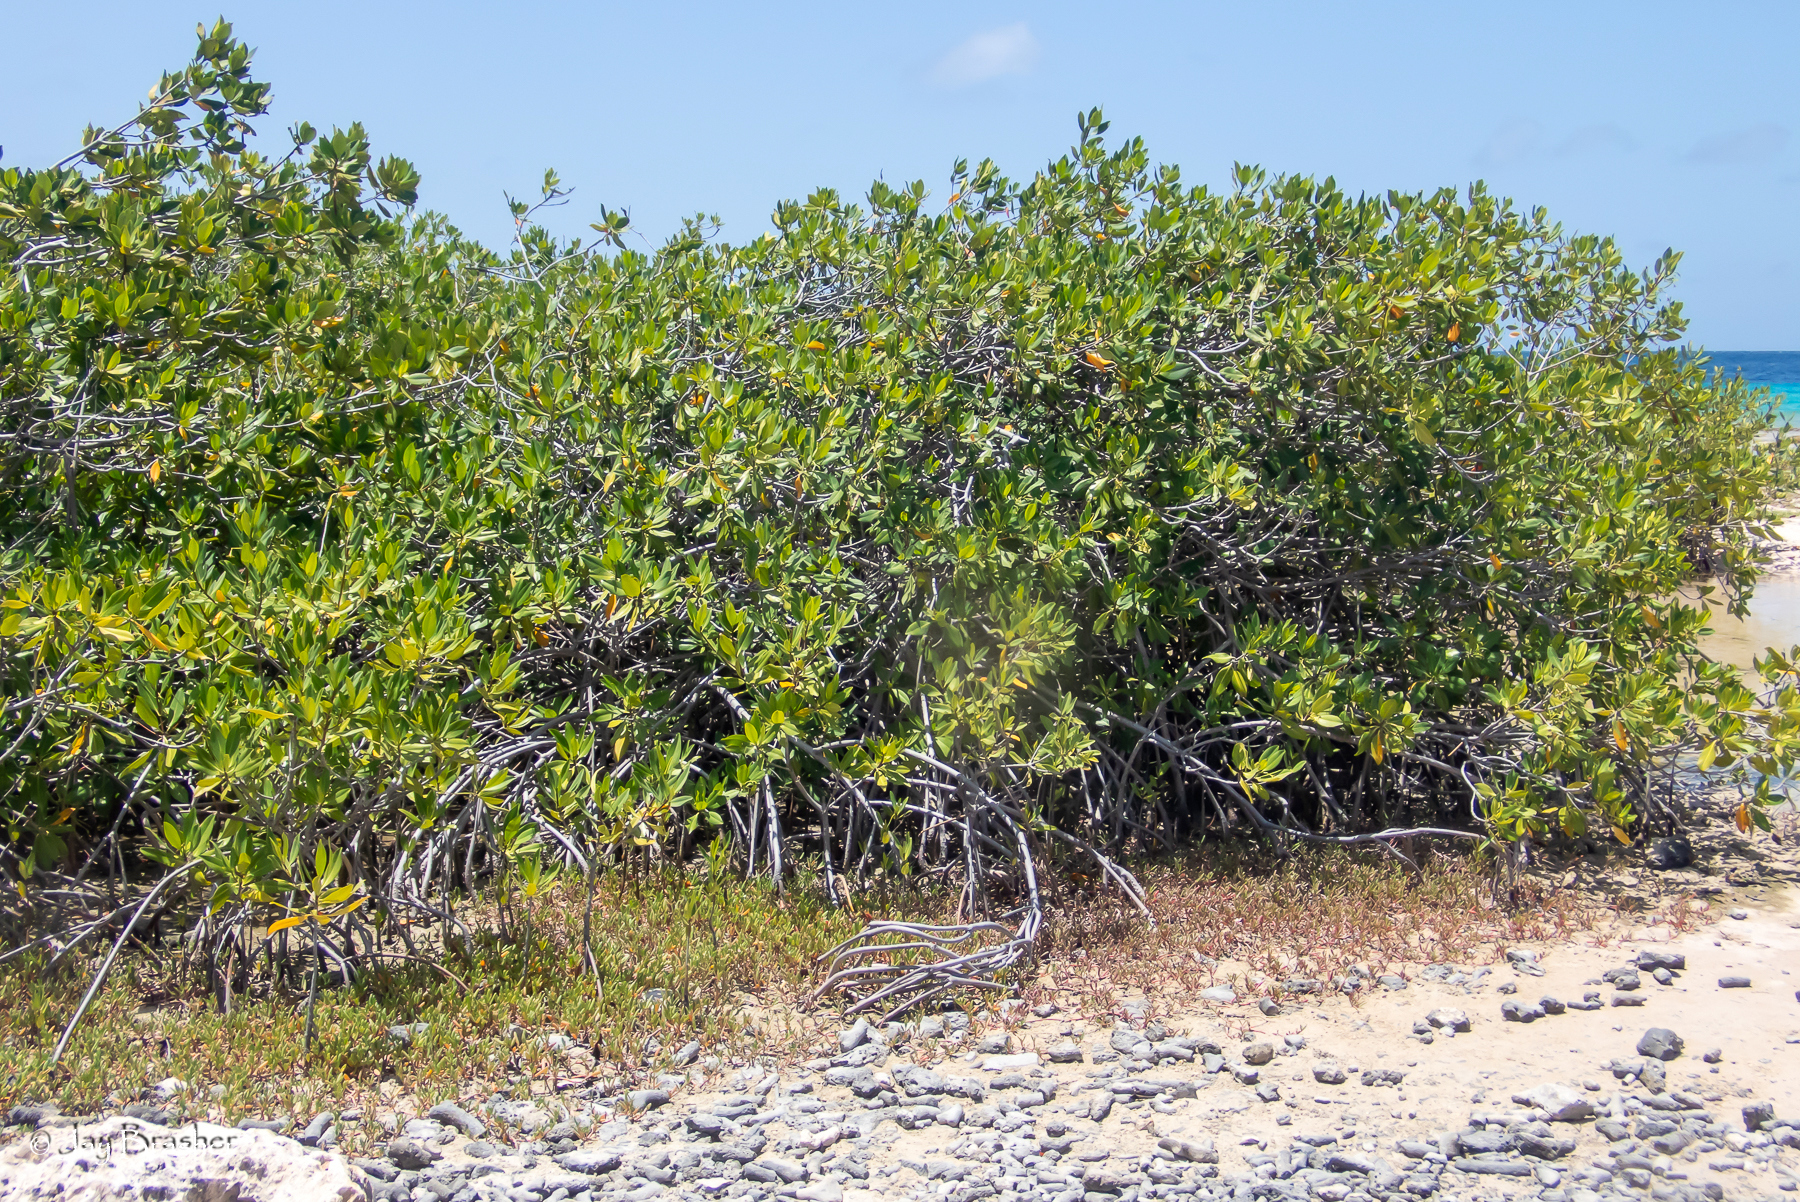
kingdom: Plantae
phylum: Tracheophyta
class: Magnoliopsida
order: Malpighiales
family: Rhizophoraceae
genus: Rhizophora
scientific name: Rhizophora mangle
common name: Red mangrove
